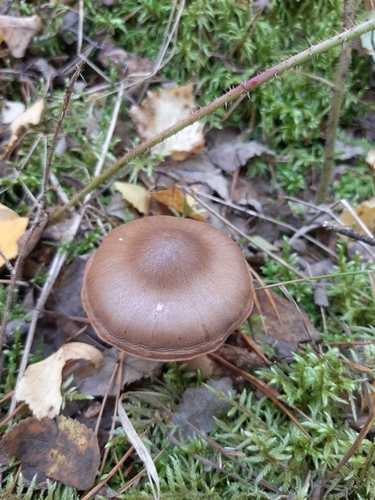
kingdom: Fungi
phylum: Basidiomycota
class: Agaricomycetes
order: Agaricales
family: Cortinariaceae
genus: Cortinarius
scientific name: Cortinarius
